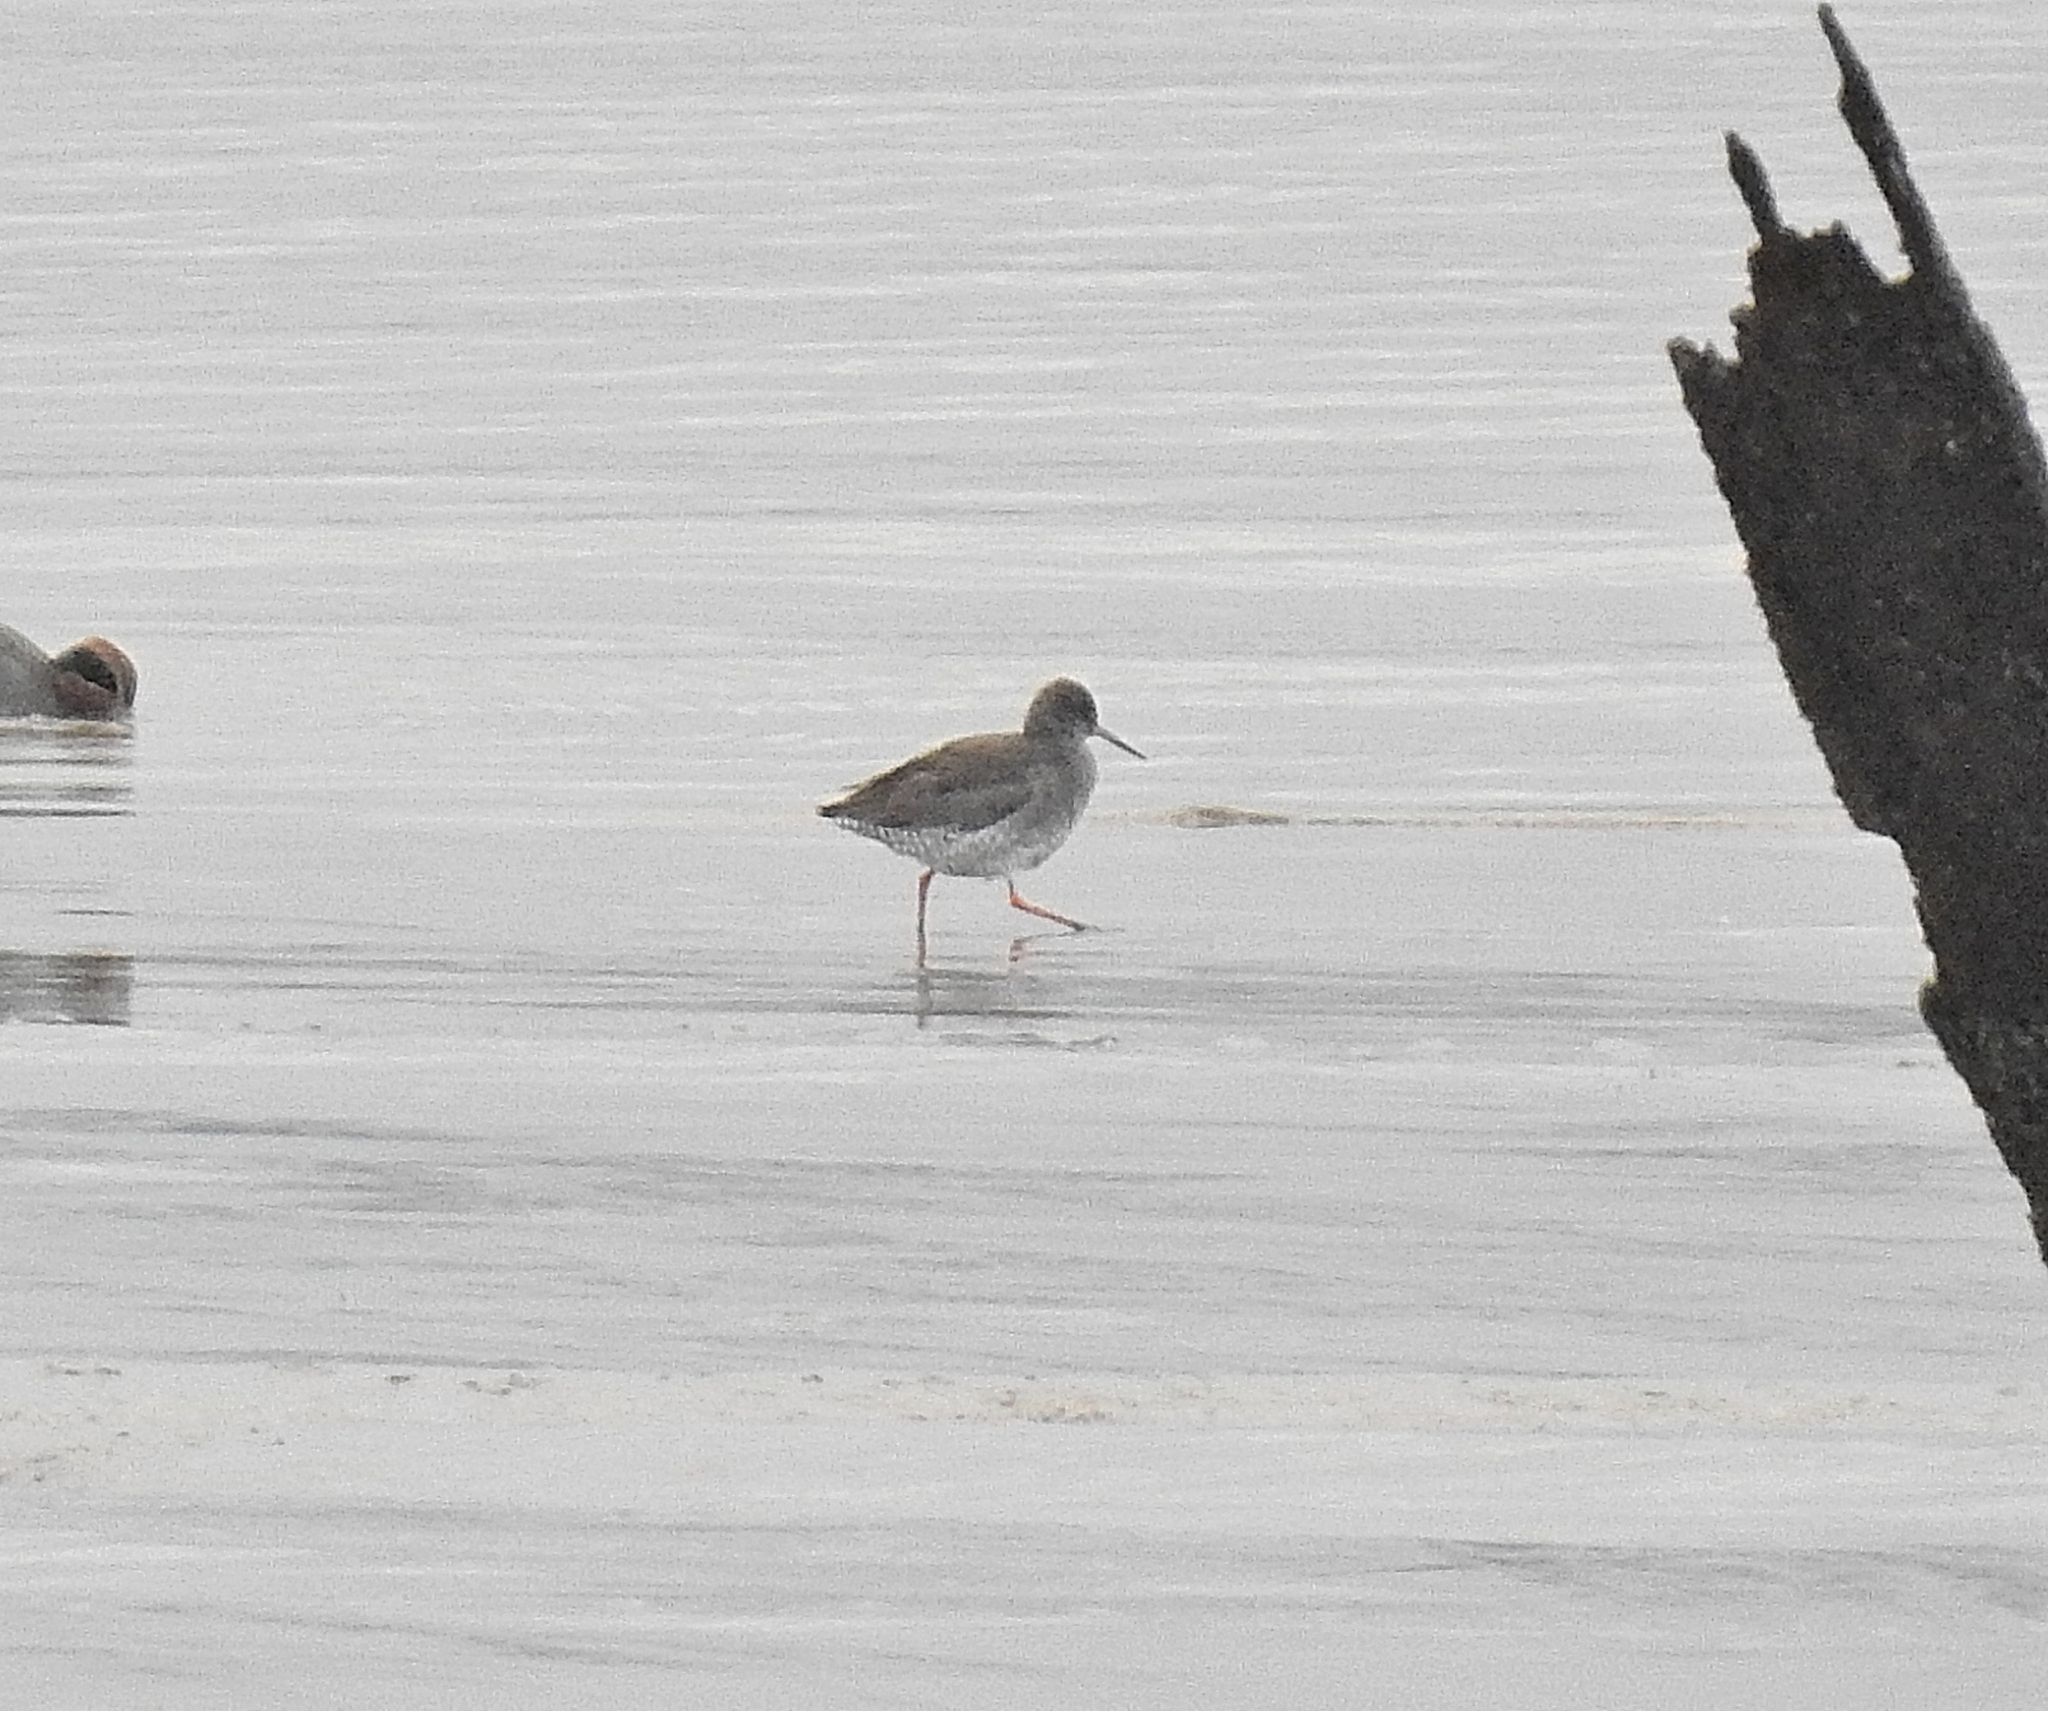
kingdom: Animalia
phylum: Chordata
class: Aves
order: Charadriiformes
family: Scolopacidae
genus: Tringa
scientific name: Tringa totanus
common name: Common redshank
